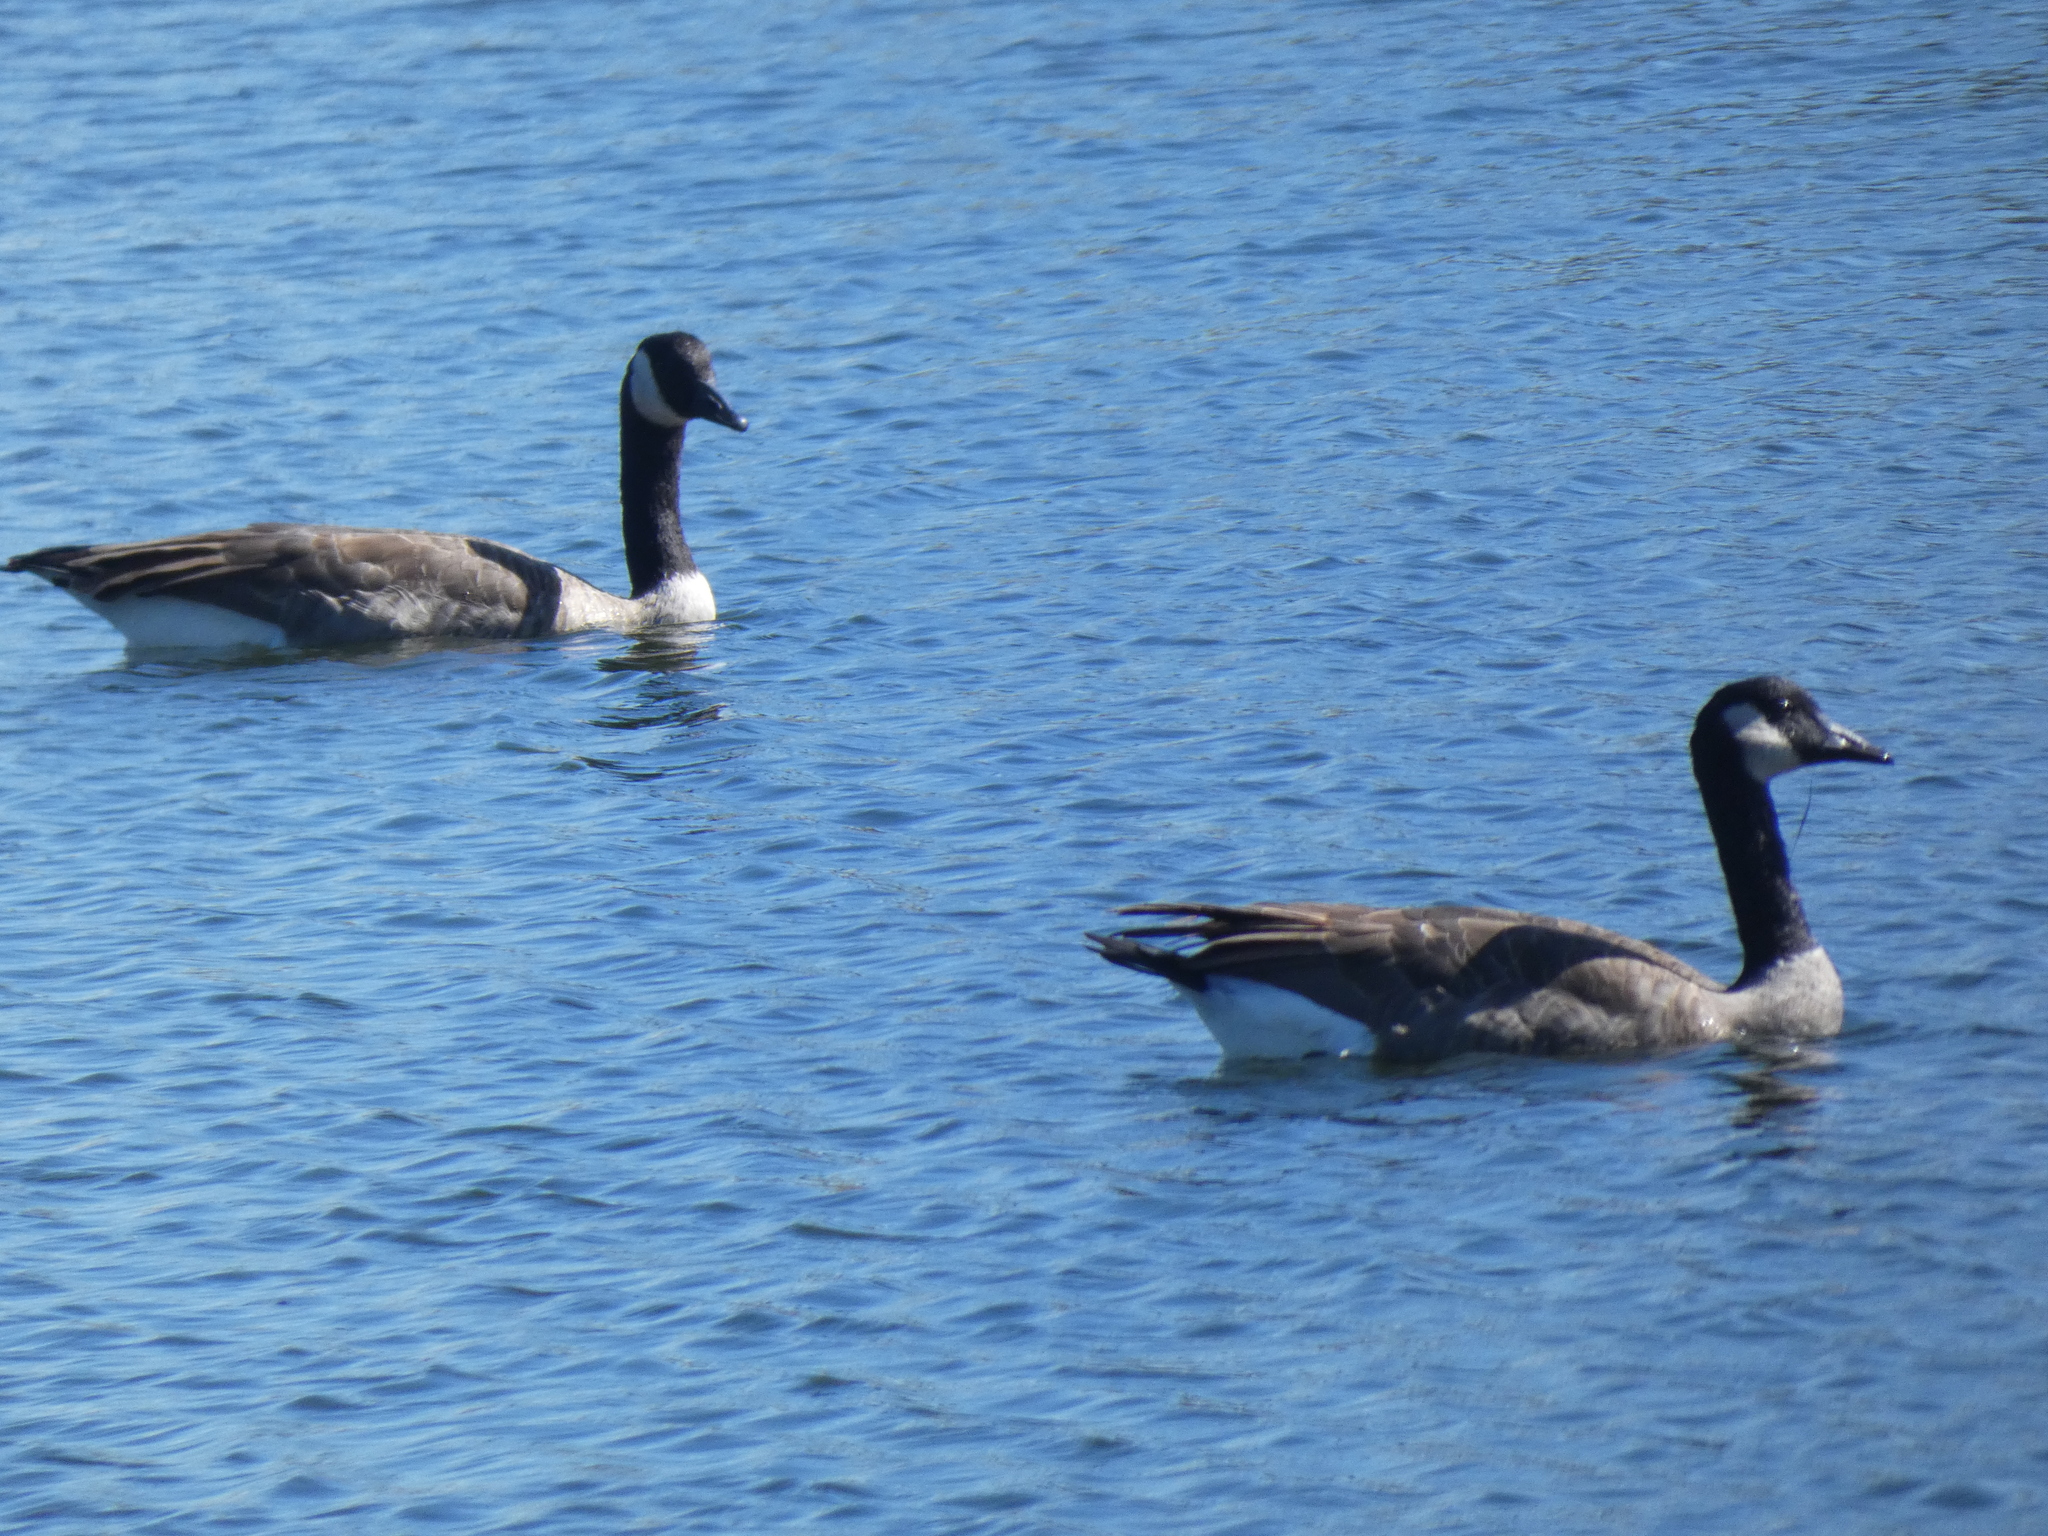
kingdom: Animalia
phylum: Chordata
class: Aves
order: Anseriformes
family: Anatidae
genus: Branta
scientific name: Branta canadensis
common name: Canada goose
